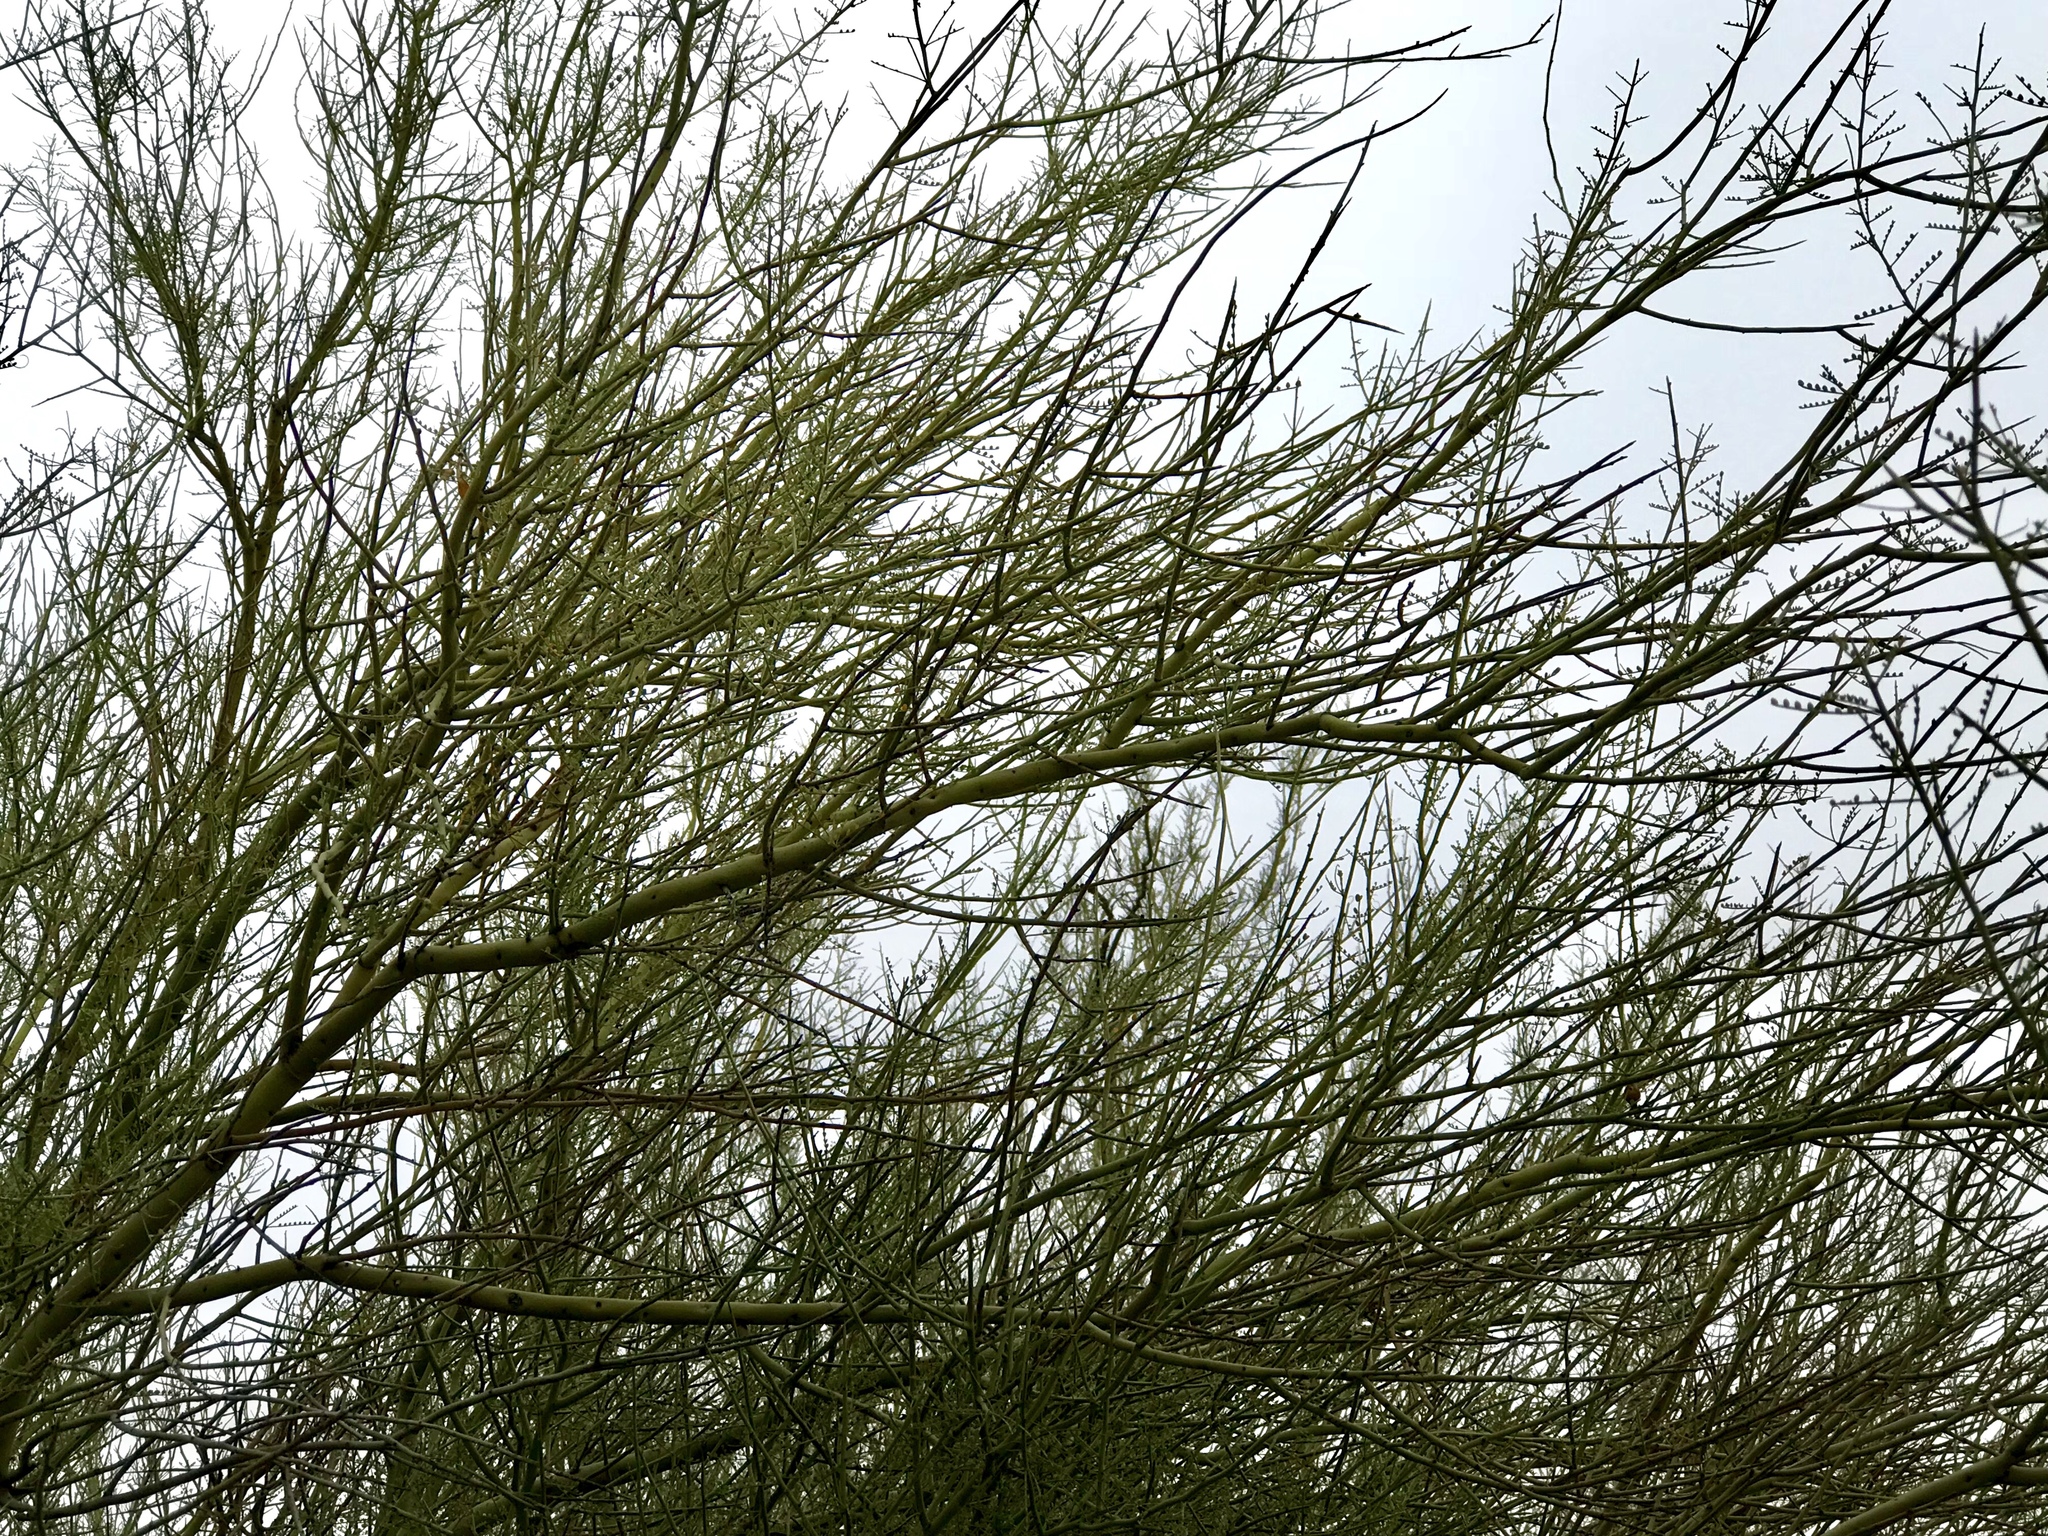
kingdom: Plantae
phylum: Tracheophyta
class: Magnoliopsida
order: Fabales
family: Fabaceae
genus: Parkinsonia
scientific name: Parkinsonia microphylla
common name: Yellow paloverde
